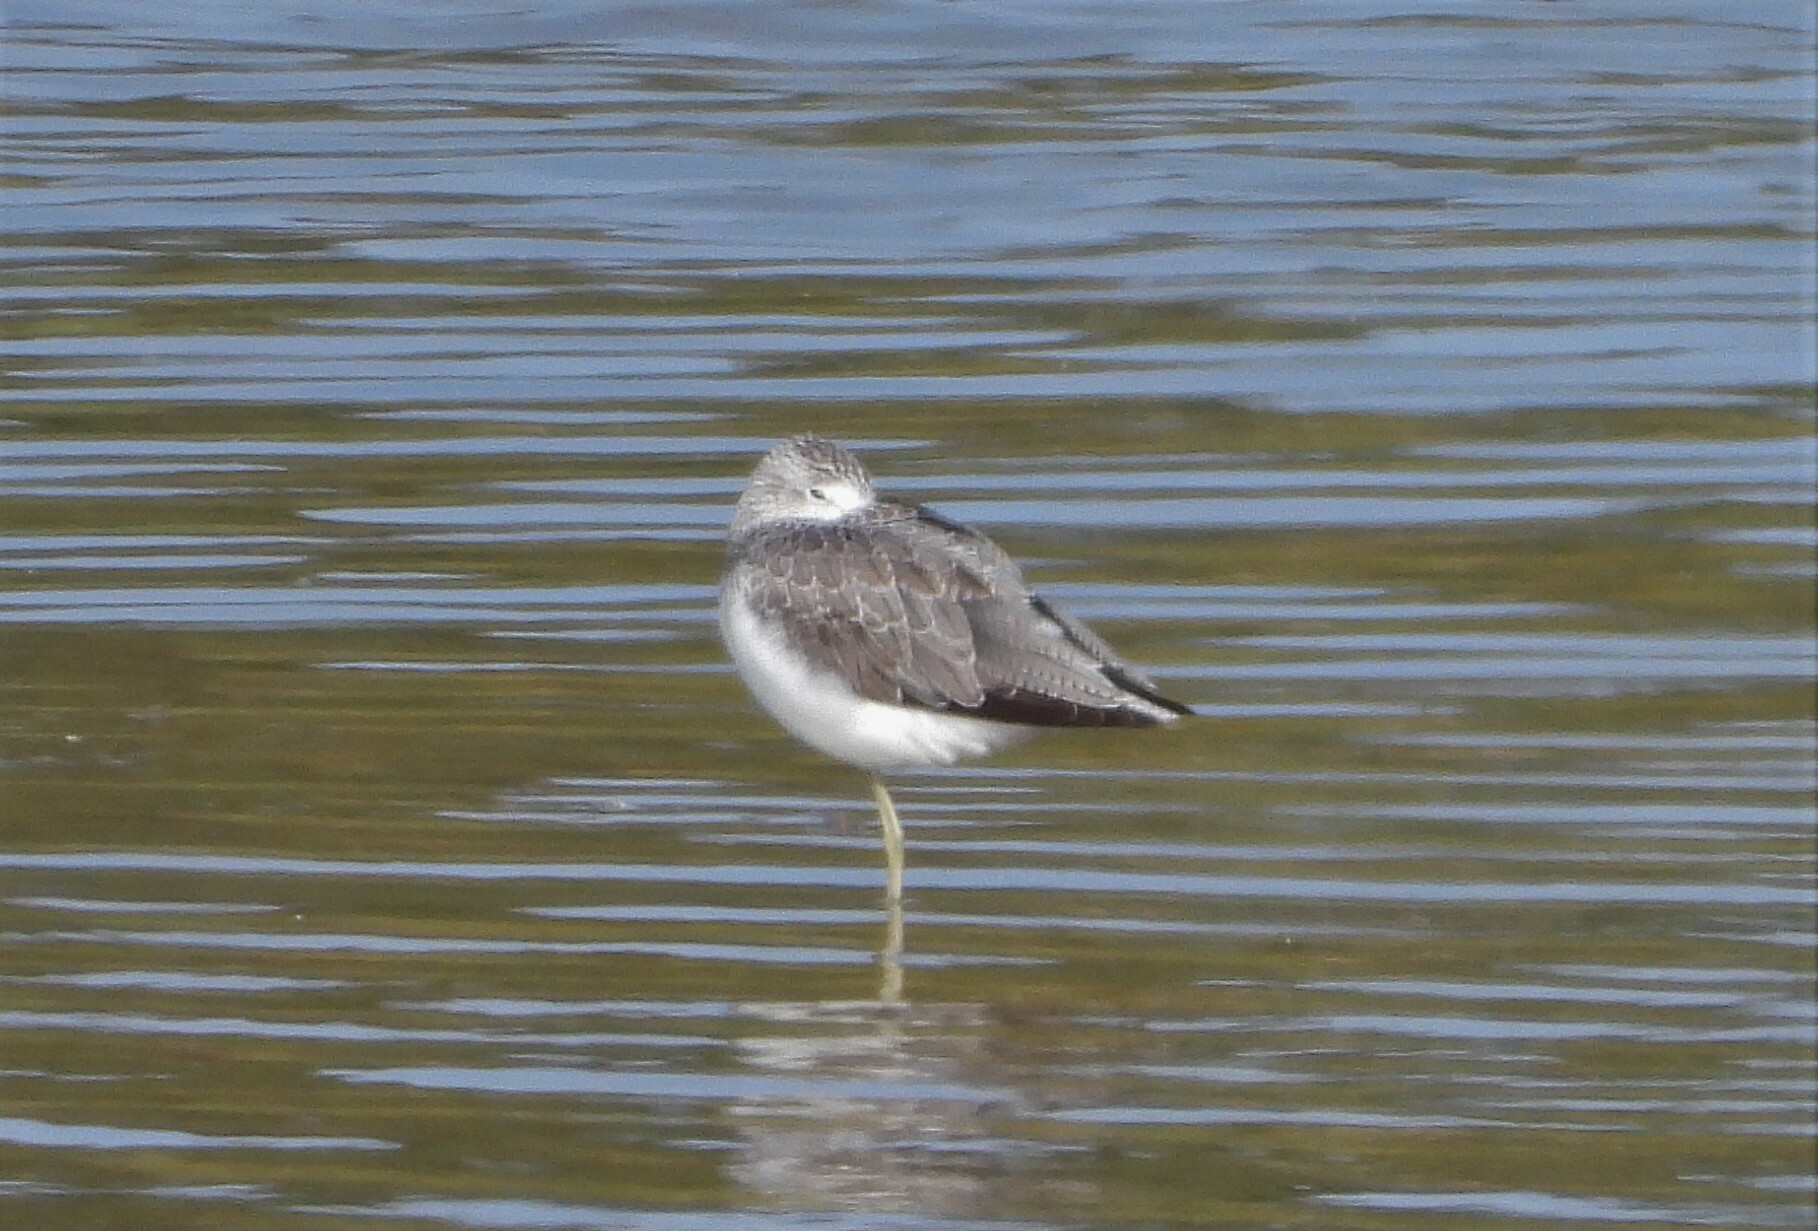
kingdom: Animalia
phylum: Chordata
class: Aves
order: Charadriiformes
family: Scolopacidae
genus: Tringa
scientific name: Tringa nebularia
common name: Common greenshank
